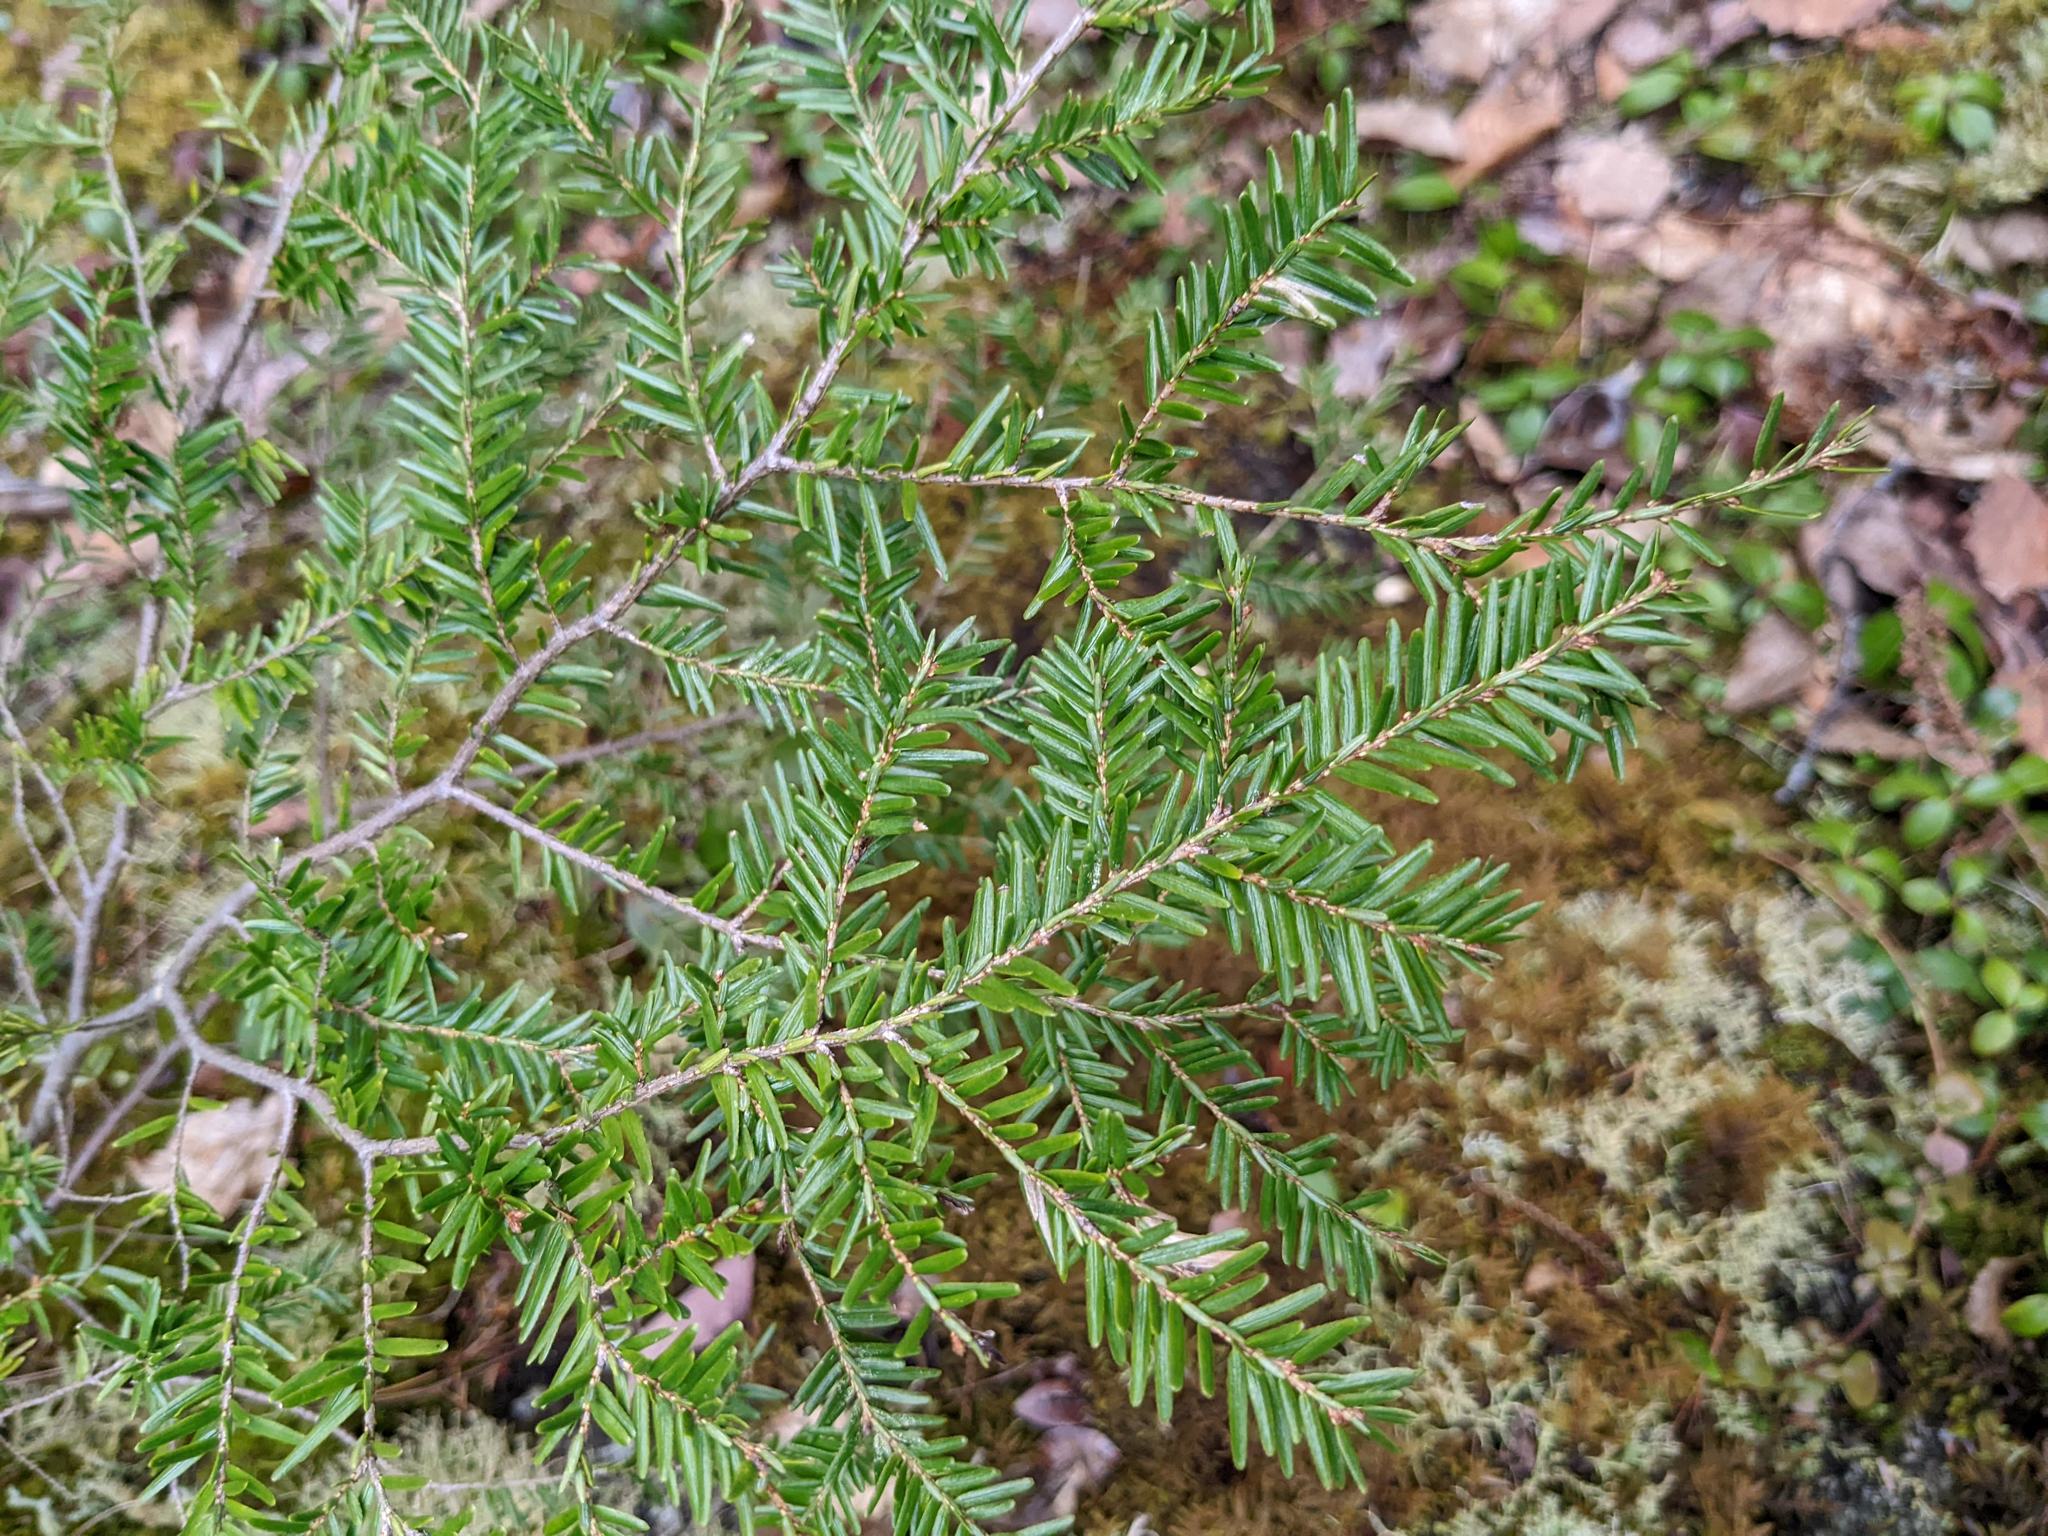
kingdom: Plantae
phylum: Tracheophyta
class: Pinopsida
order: Pinales
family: Pinaceae
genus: Tsuga
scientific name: Tsuga canadensis
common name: Eastern hemlock
